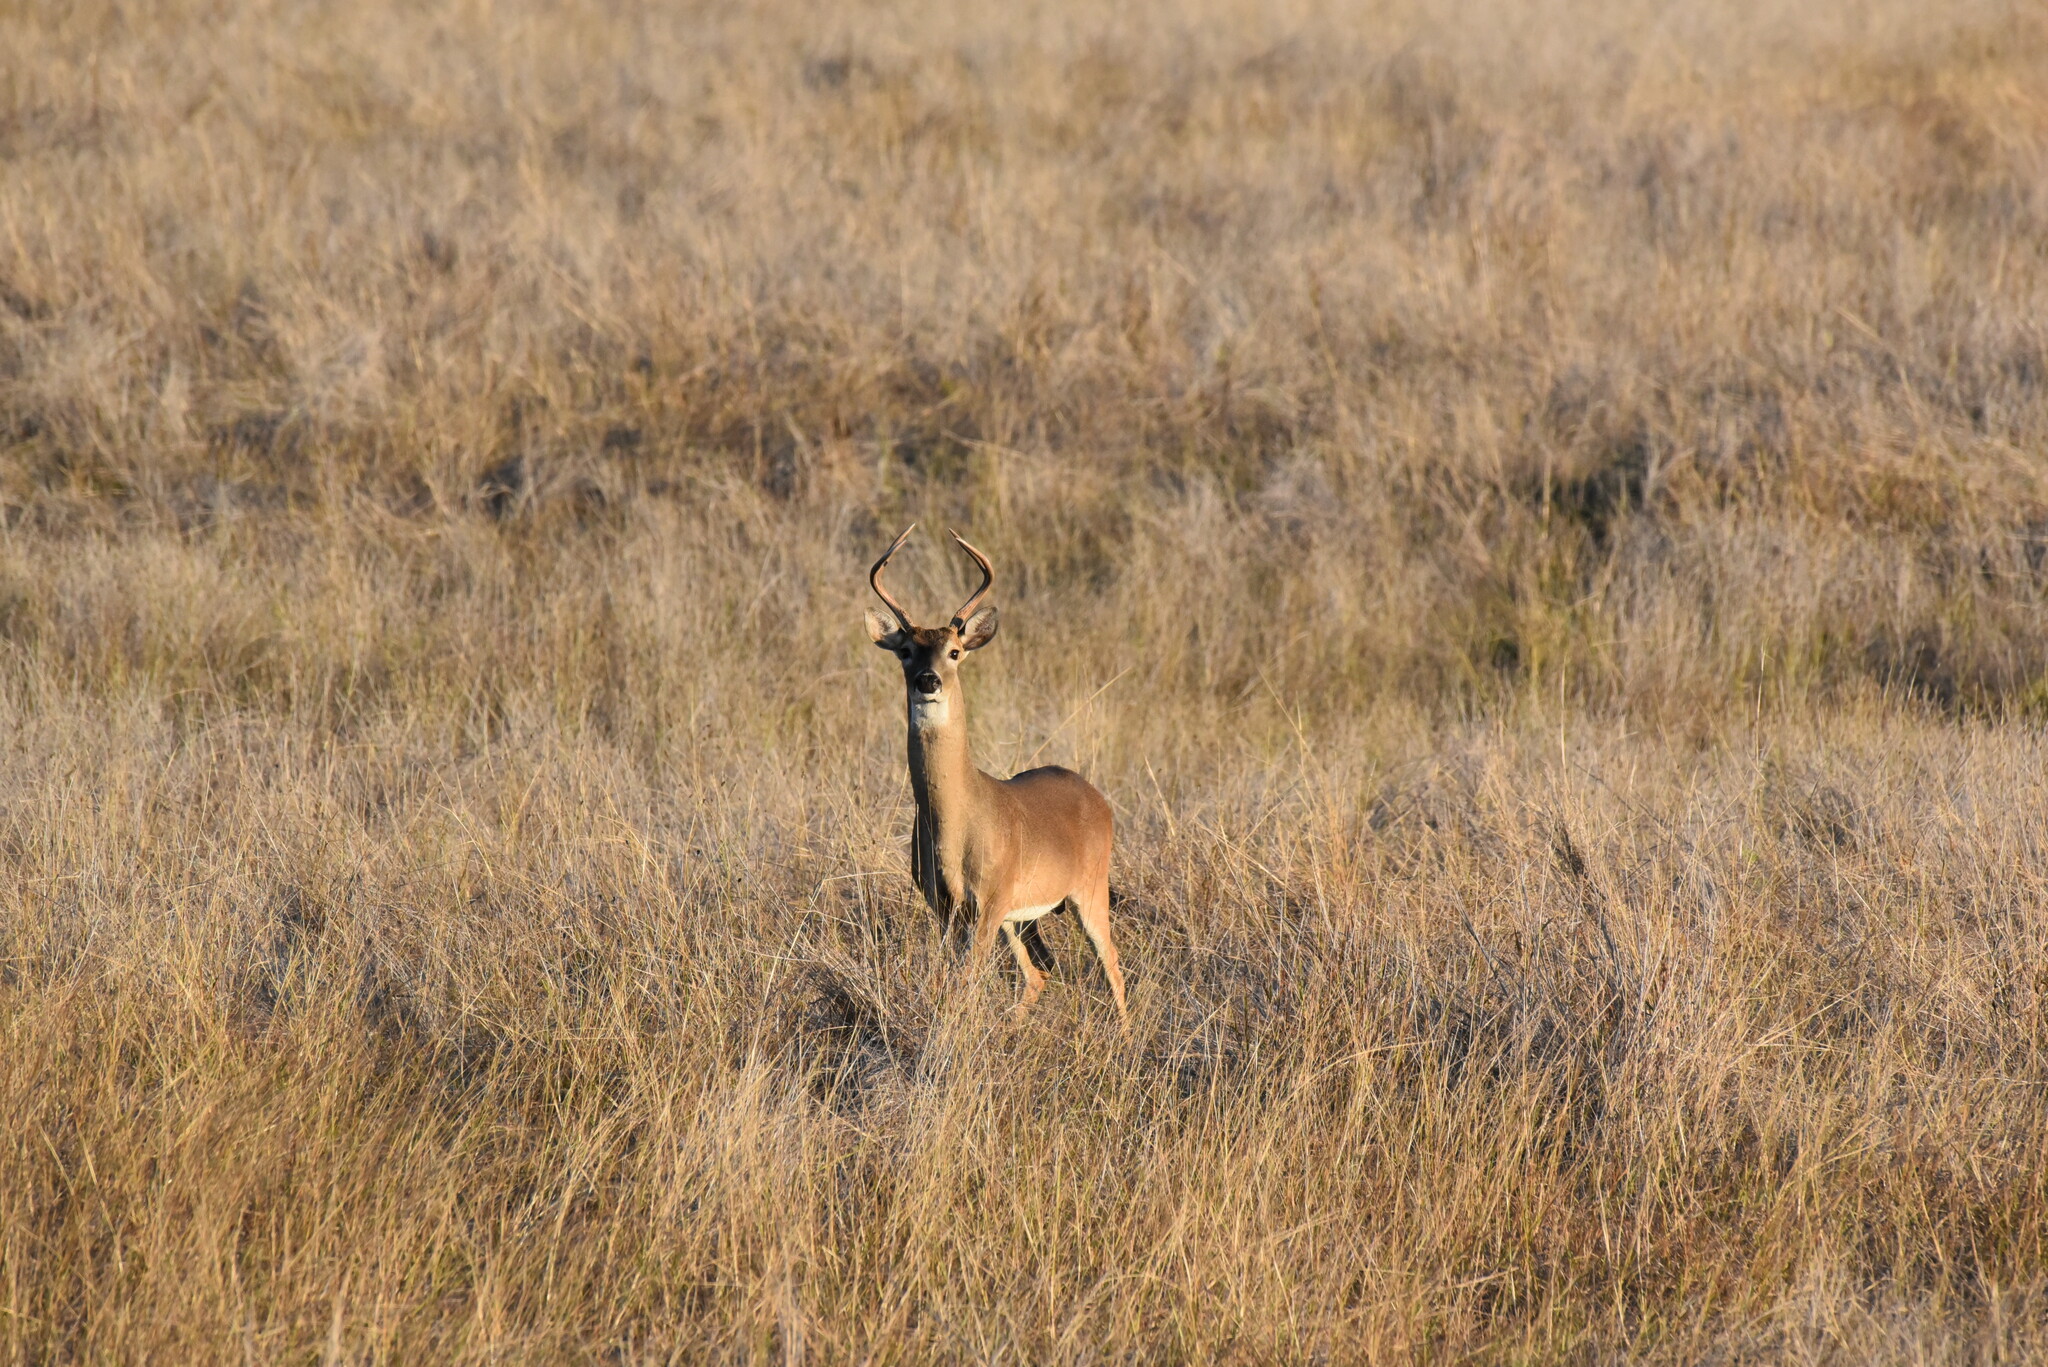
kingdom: Animalia
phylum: Chordata
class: Mammalia
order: Artiodactyla
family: Cervidae
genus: Odocoileus
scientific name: Odocoileus virginianus
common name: White-tailed deer
